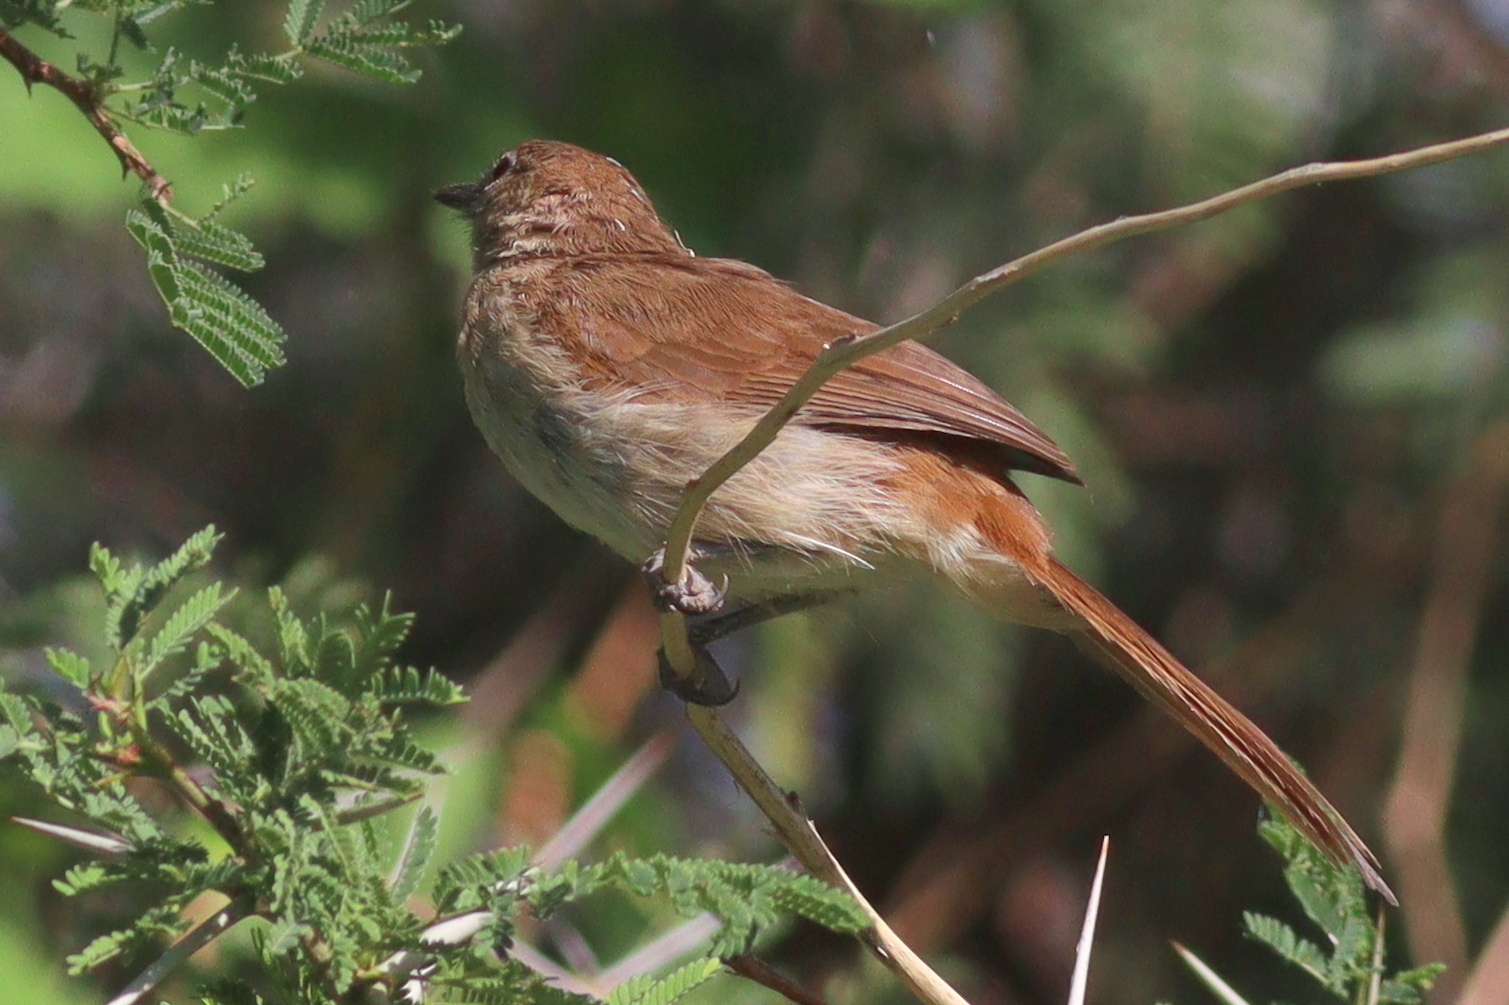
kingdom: Animalia
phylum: Chordata
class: Aves
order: Passeriformes
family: Pycnonotidae
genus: Phyllastrephus
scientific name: Phyllastrephus strepitans
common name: Northern brownbul
